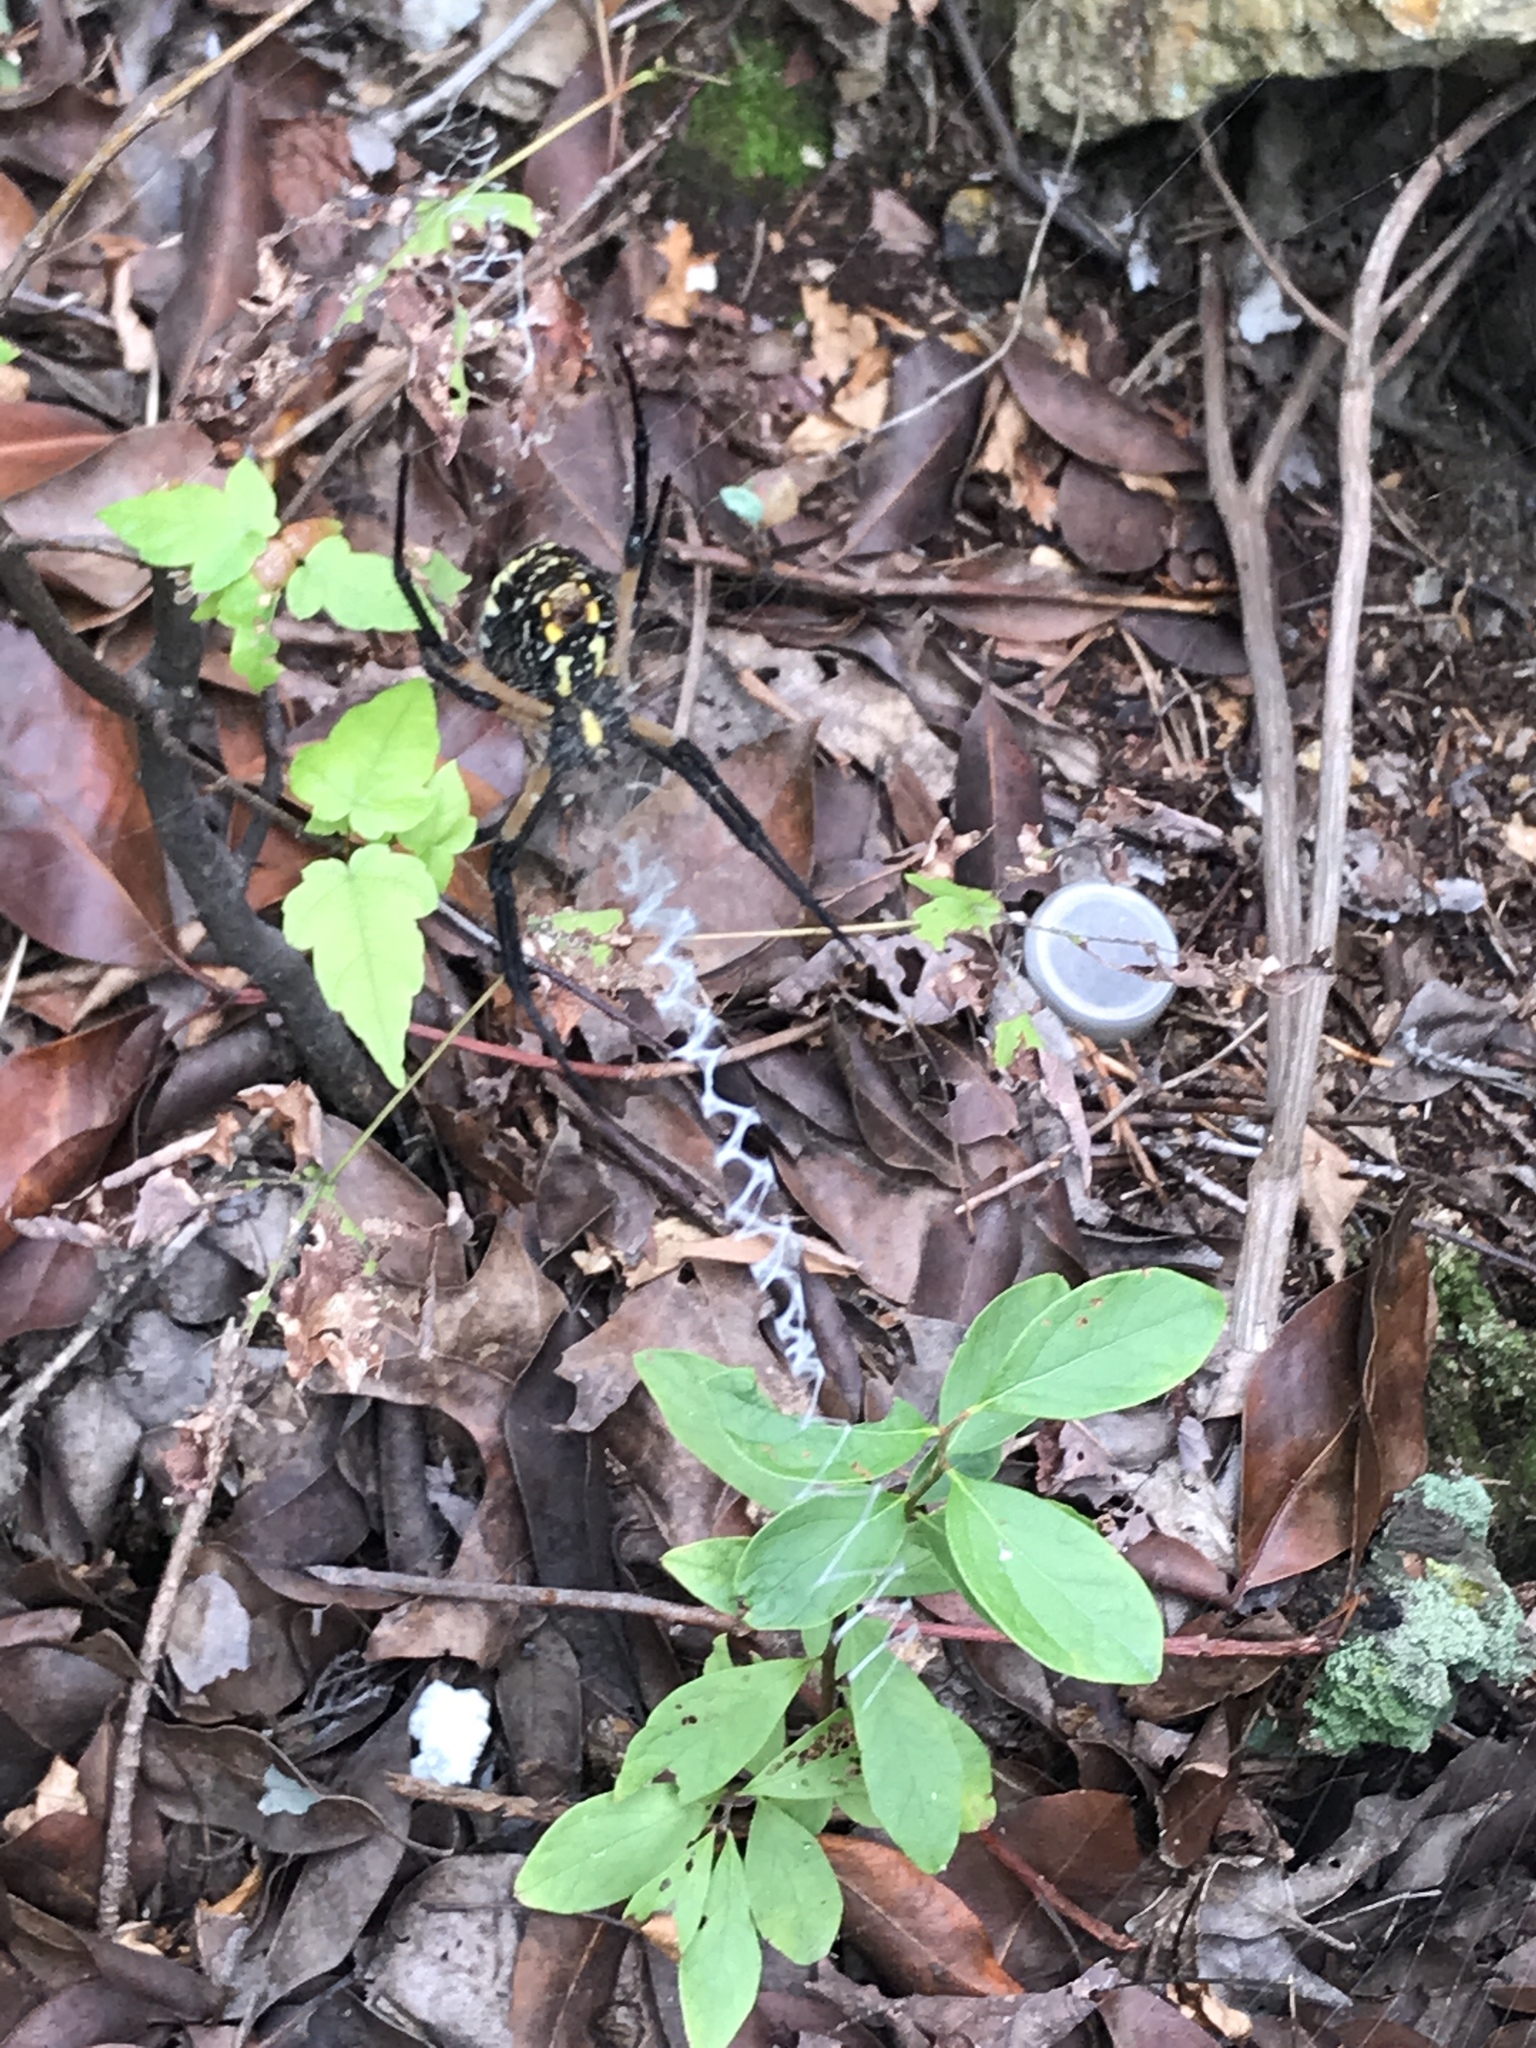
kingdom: Animalia
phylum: Arthropoda
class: Arachnida
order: Araneae
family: Araneidae
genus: Argiope
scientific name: Argiope aurantia
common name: Orb weavers
